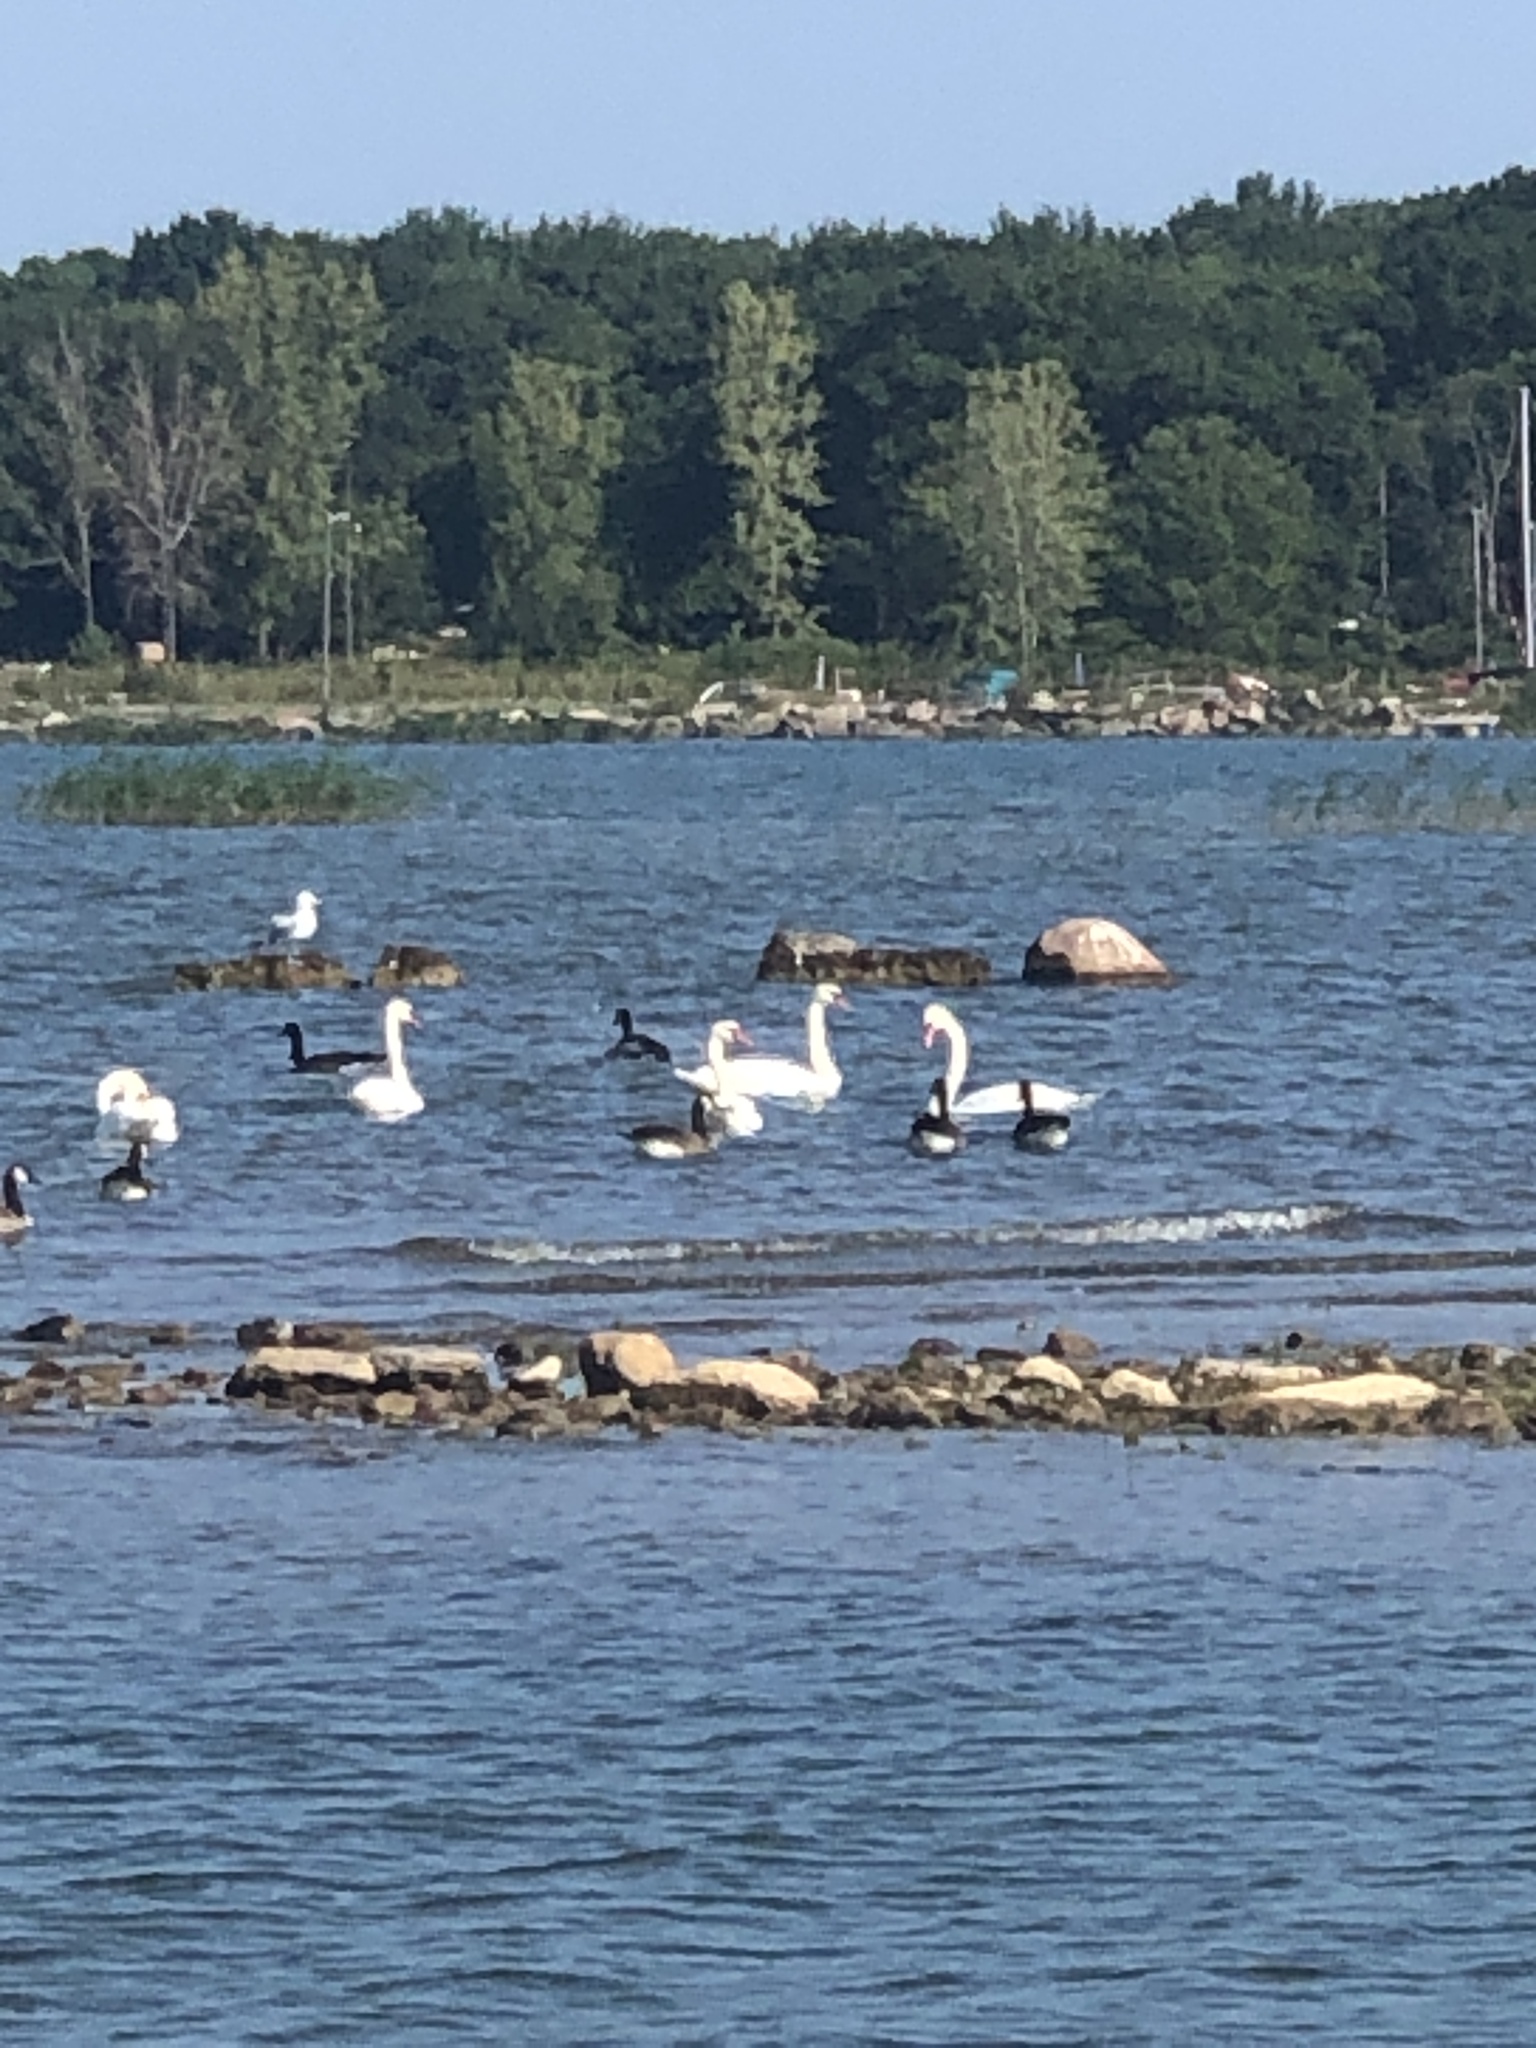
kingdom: Animalia
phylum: Chordata
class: Aves
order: Anseriformes
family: Anatidae
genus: Cygnus
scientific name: Cygnus olor
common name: Mute swan
